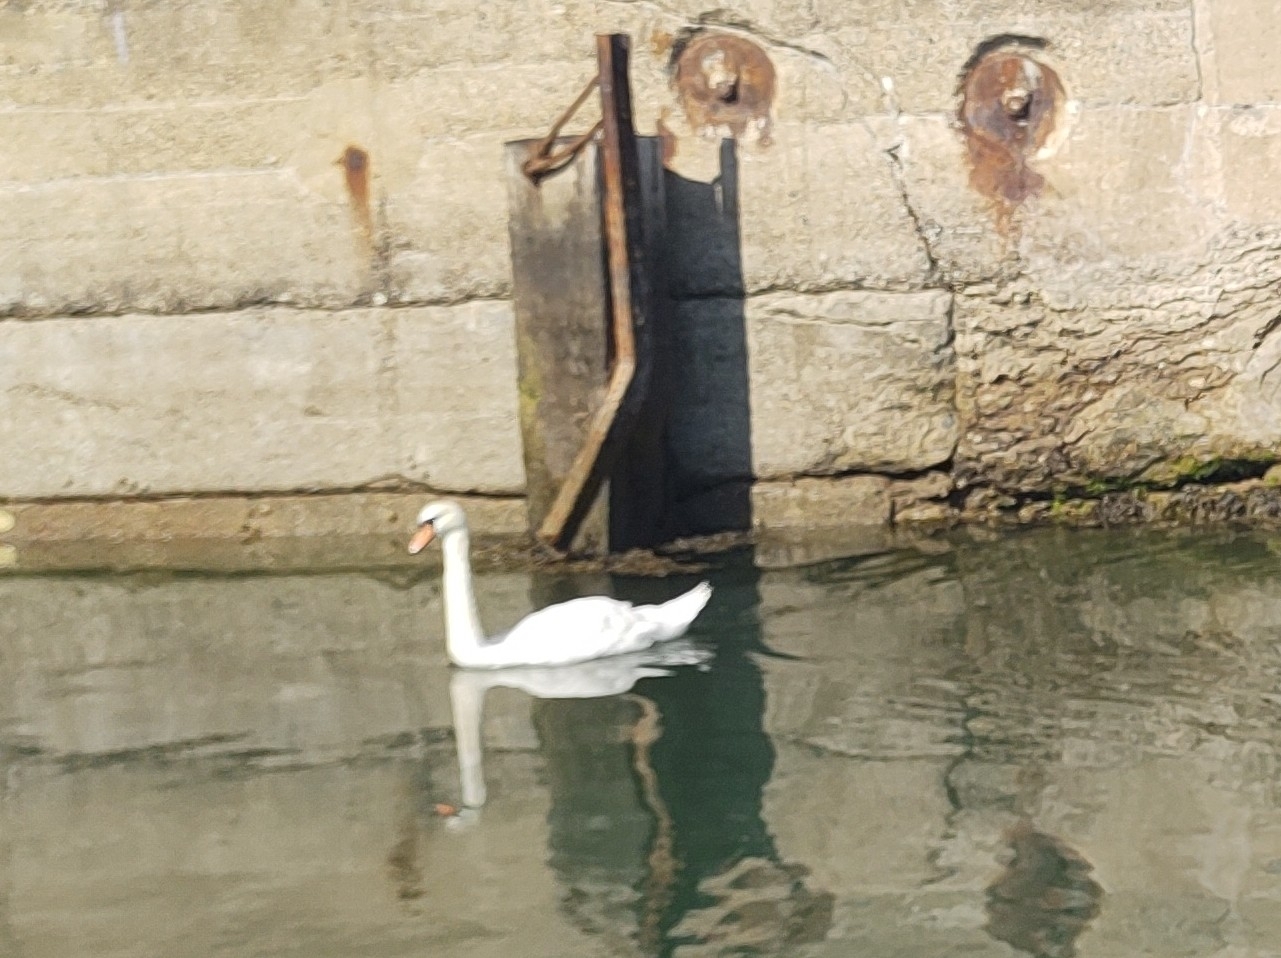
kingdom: Animalia
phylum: Chordata
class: Aves
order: Anseriformes
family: Anatidae
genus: Cygnus
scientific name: Cygnus olor
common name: Mute swan
